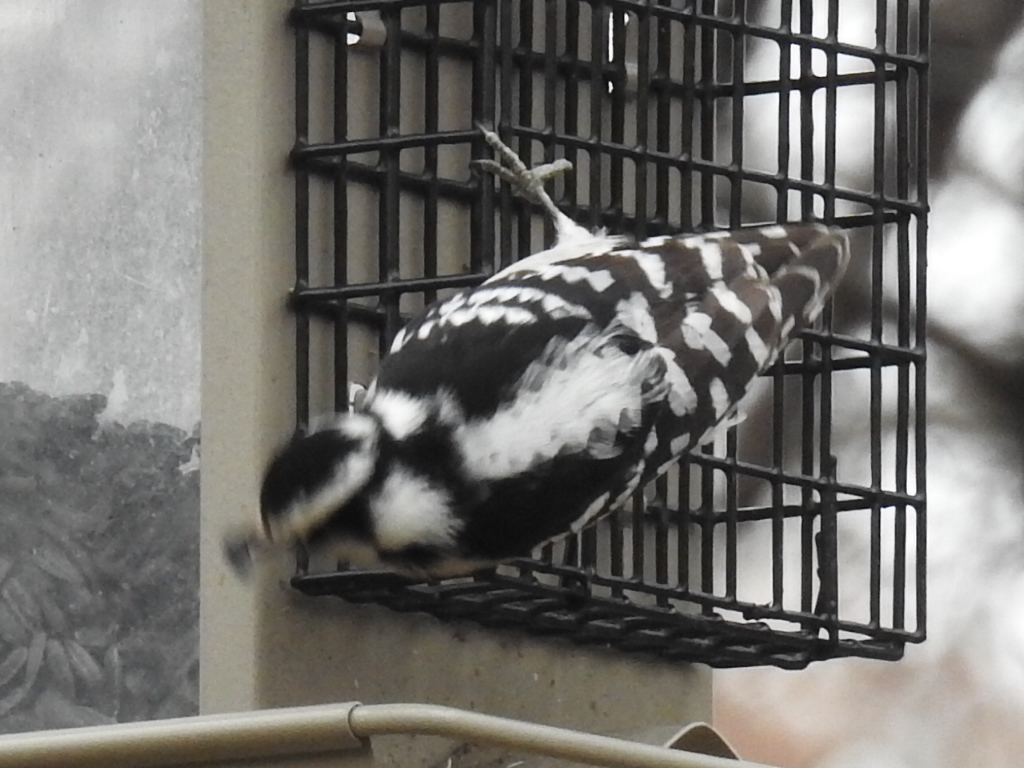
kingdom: Animalia
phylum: Chordata
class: Aves
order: Piciformes
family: Picidae
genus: Dryobates
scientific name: Dryobates pubescens
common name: Downy woodpecker
